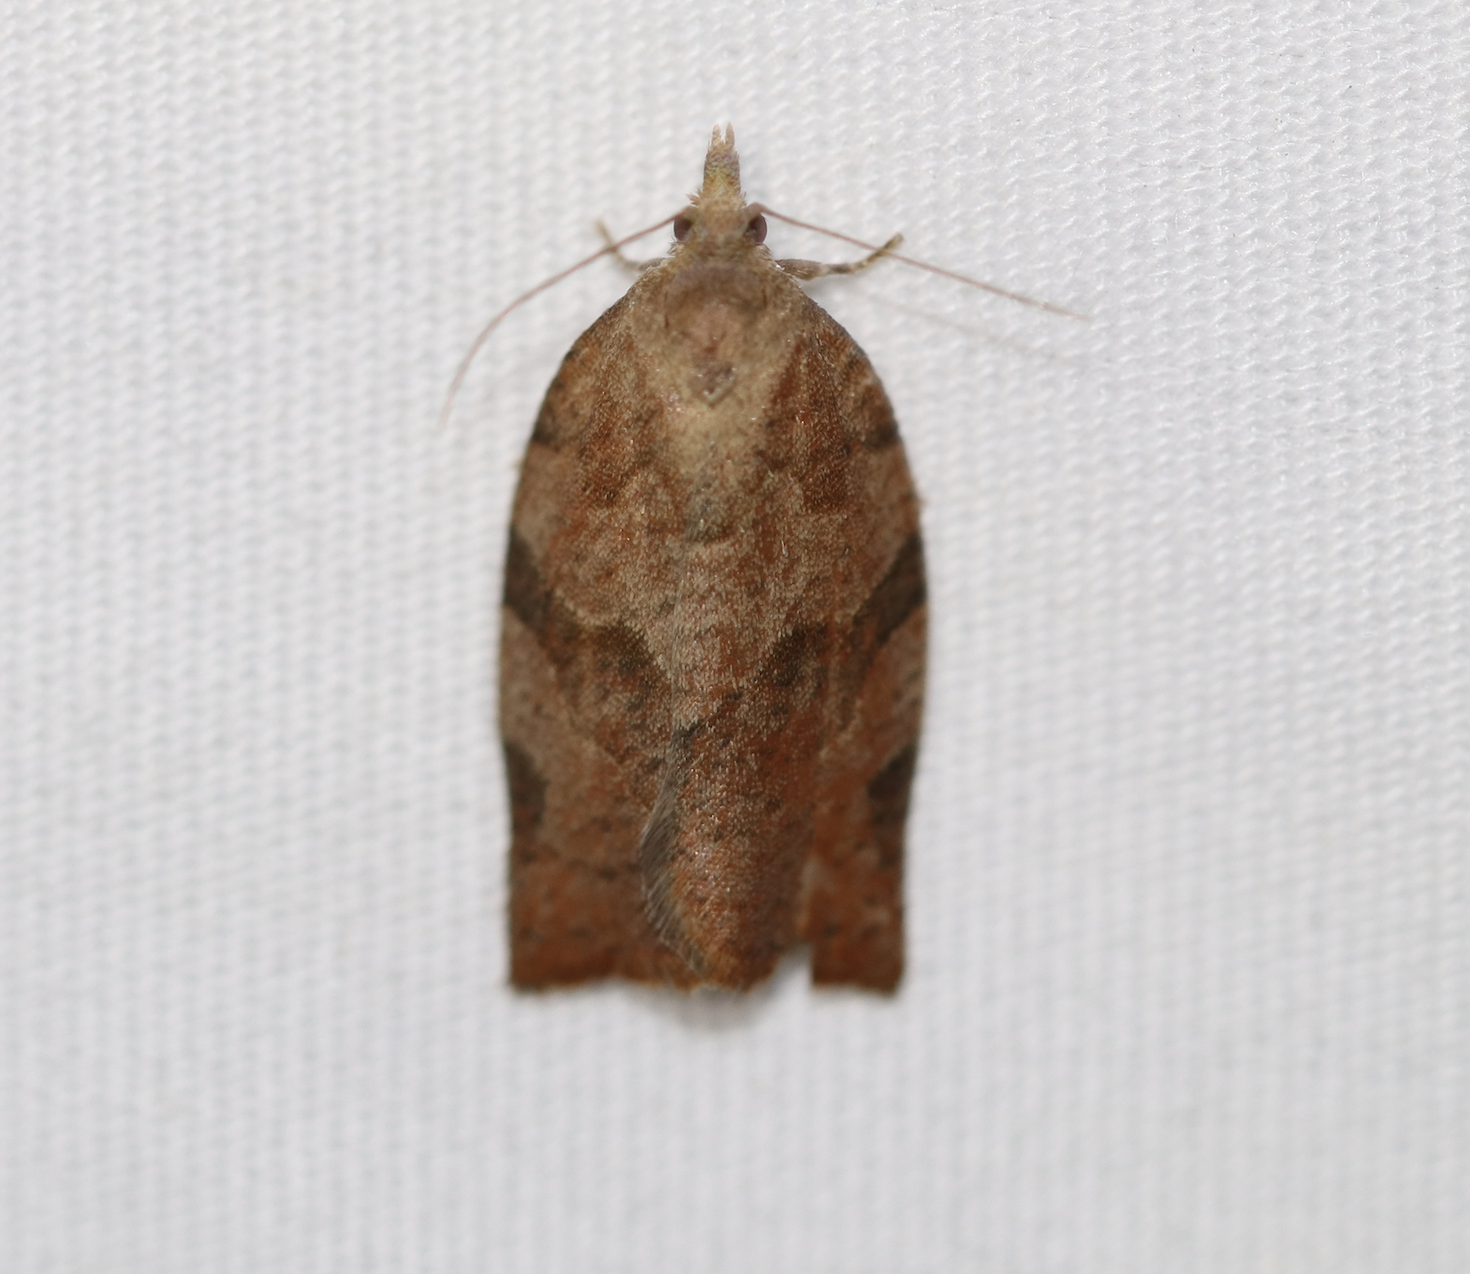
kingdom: Animalia
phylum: Arthropoda
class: Insecta
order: Lepidoptera
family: Tortricidae
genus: Pandemis
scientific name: Pandemis canadana
